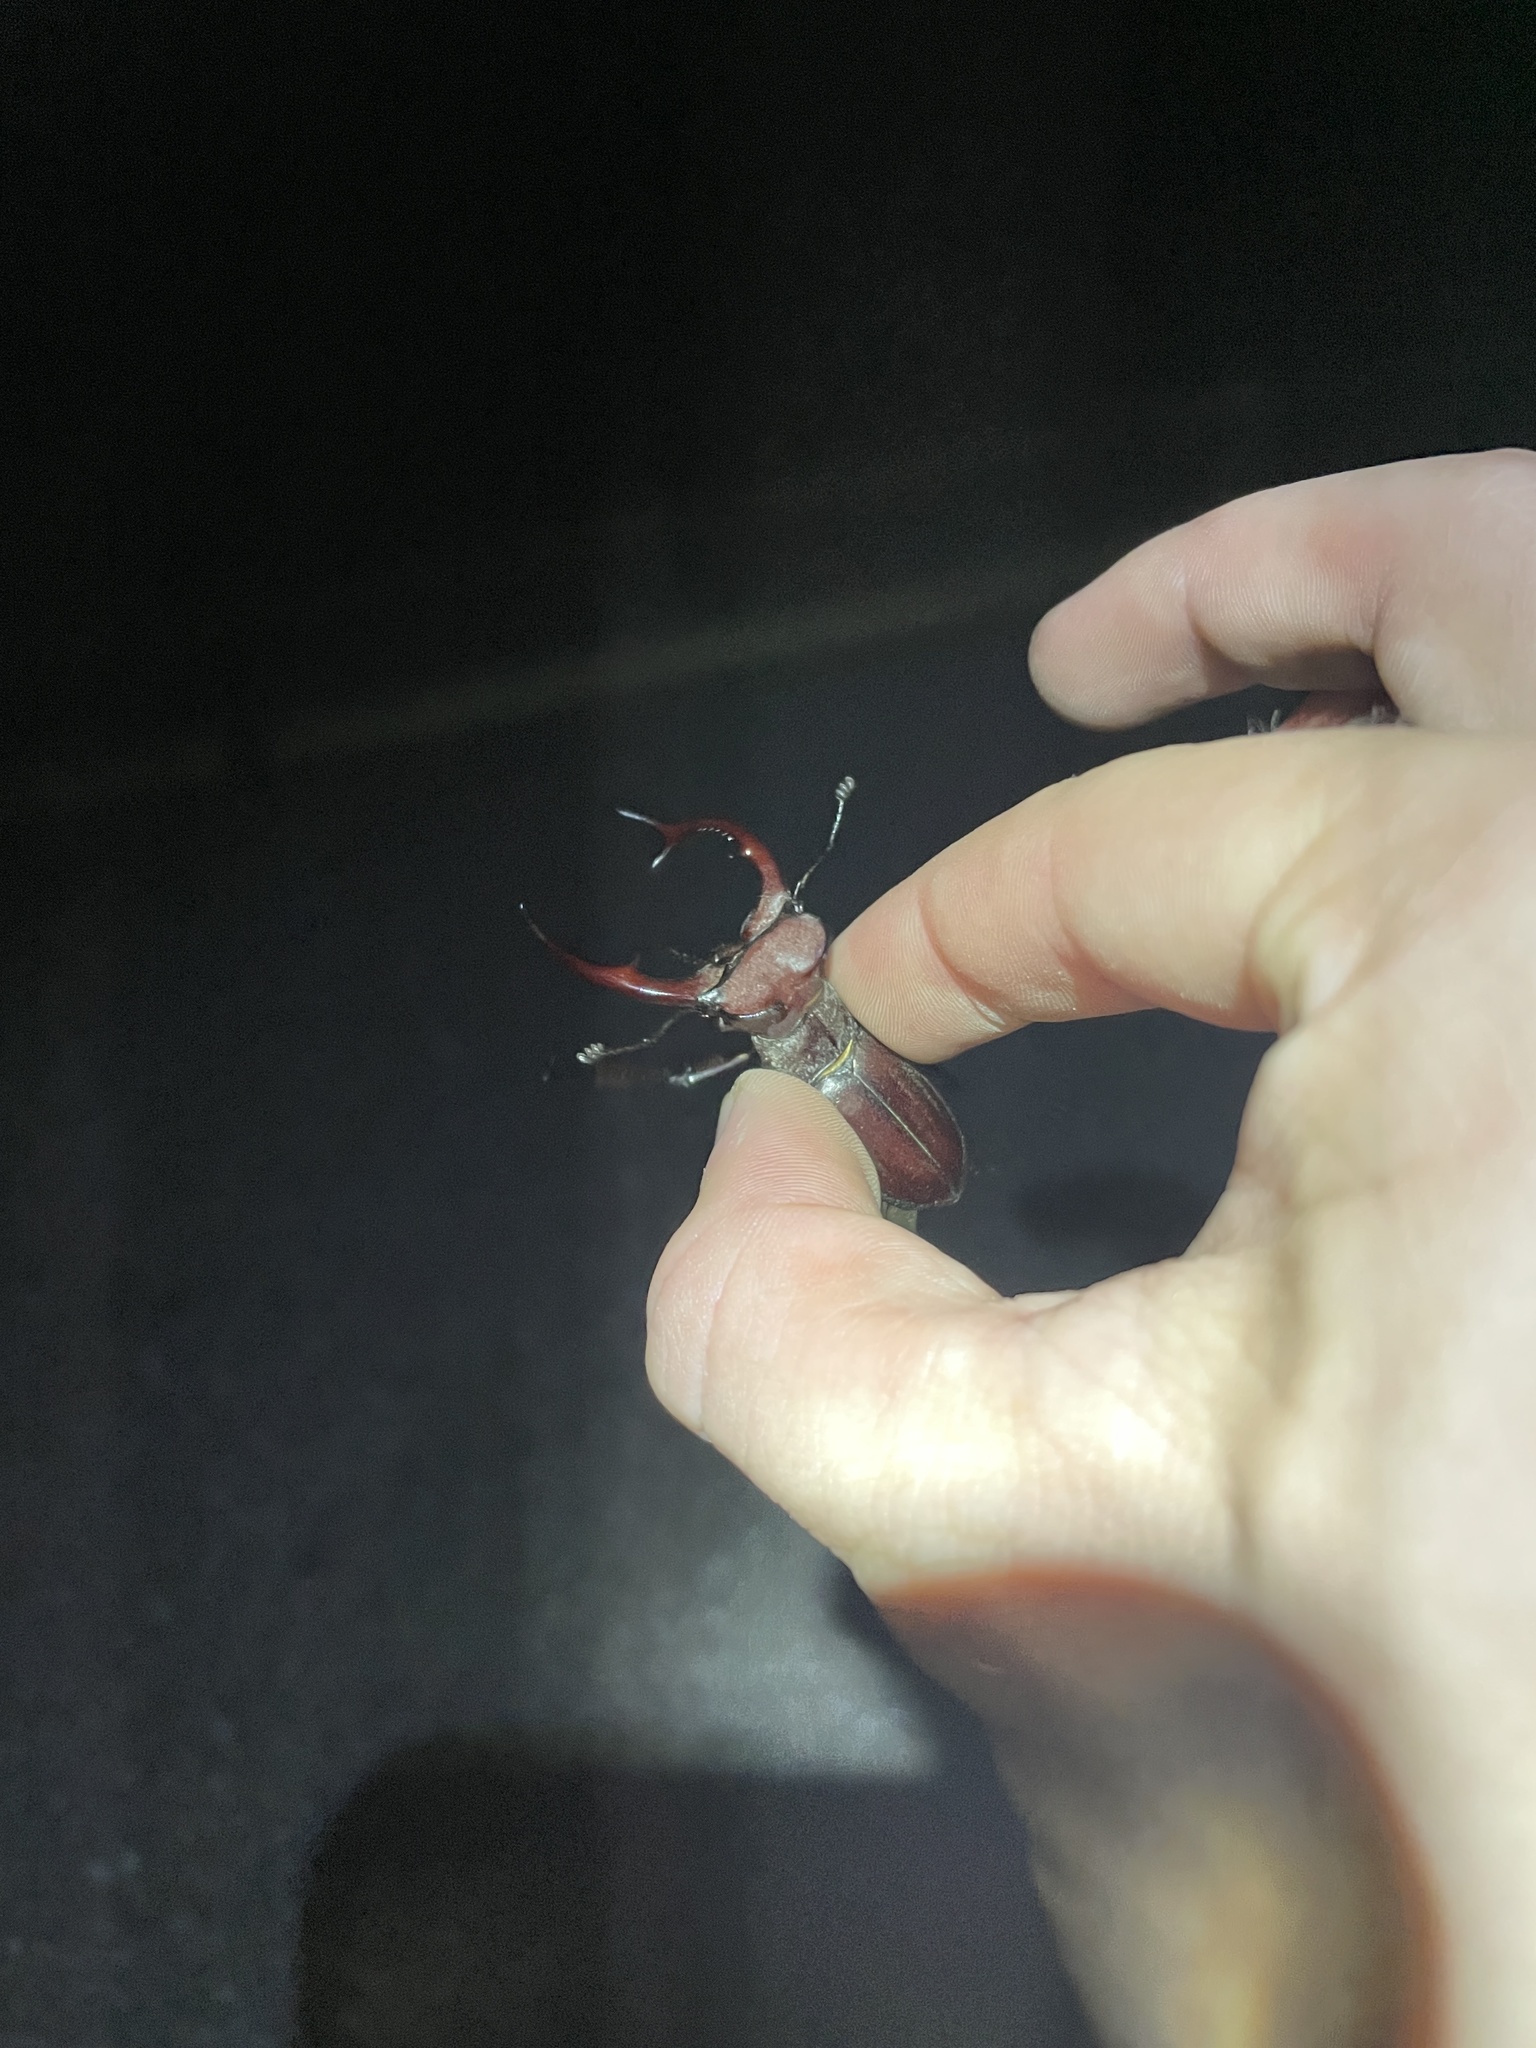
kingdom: Animalia
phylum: Arthropoda
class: Insecta
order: Coleoptera
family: Lucanidae
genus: Lucanus
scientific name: Lucanus elaphus
